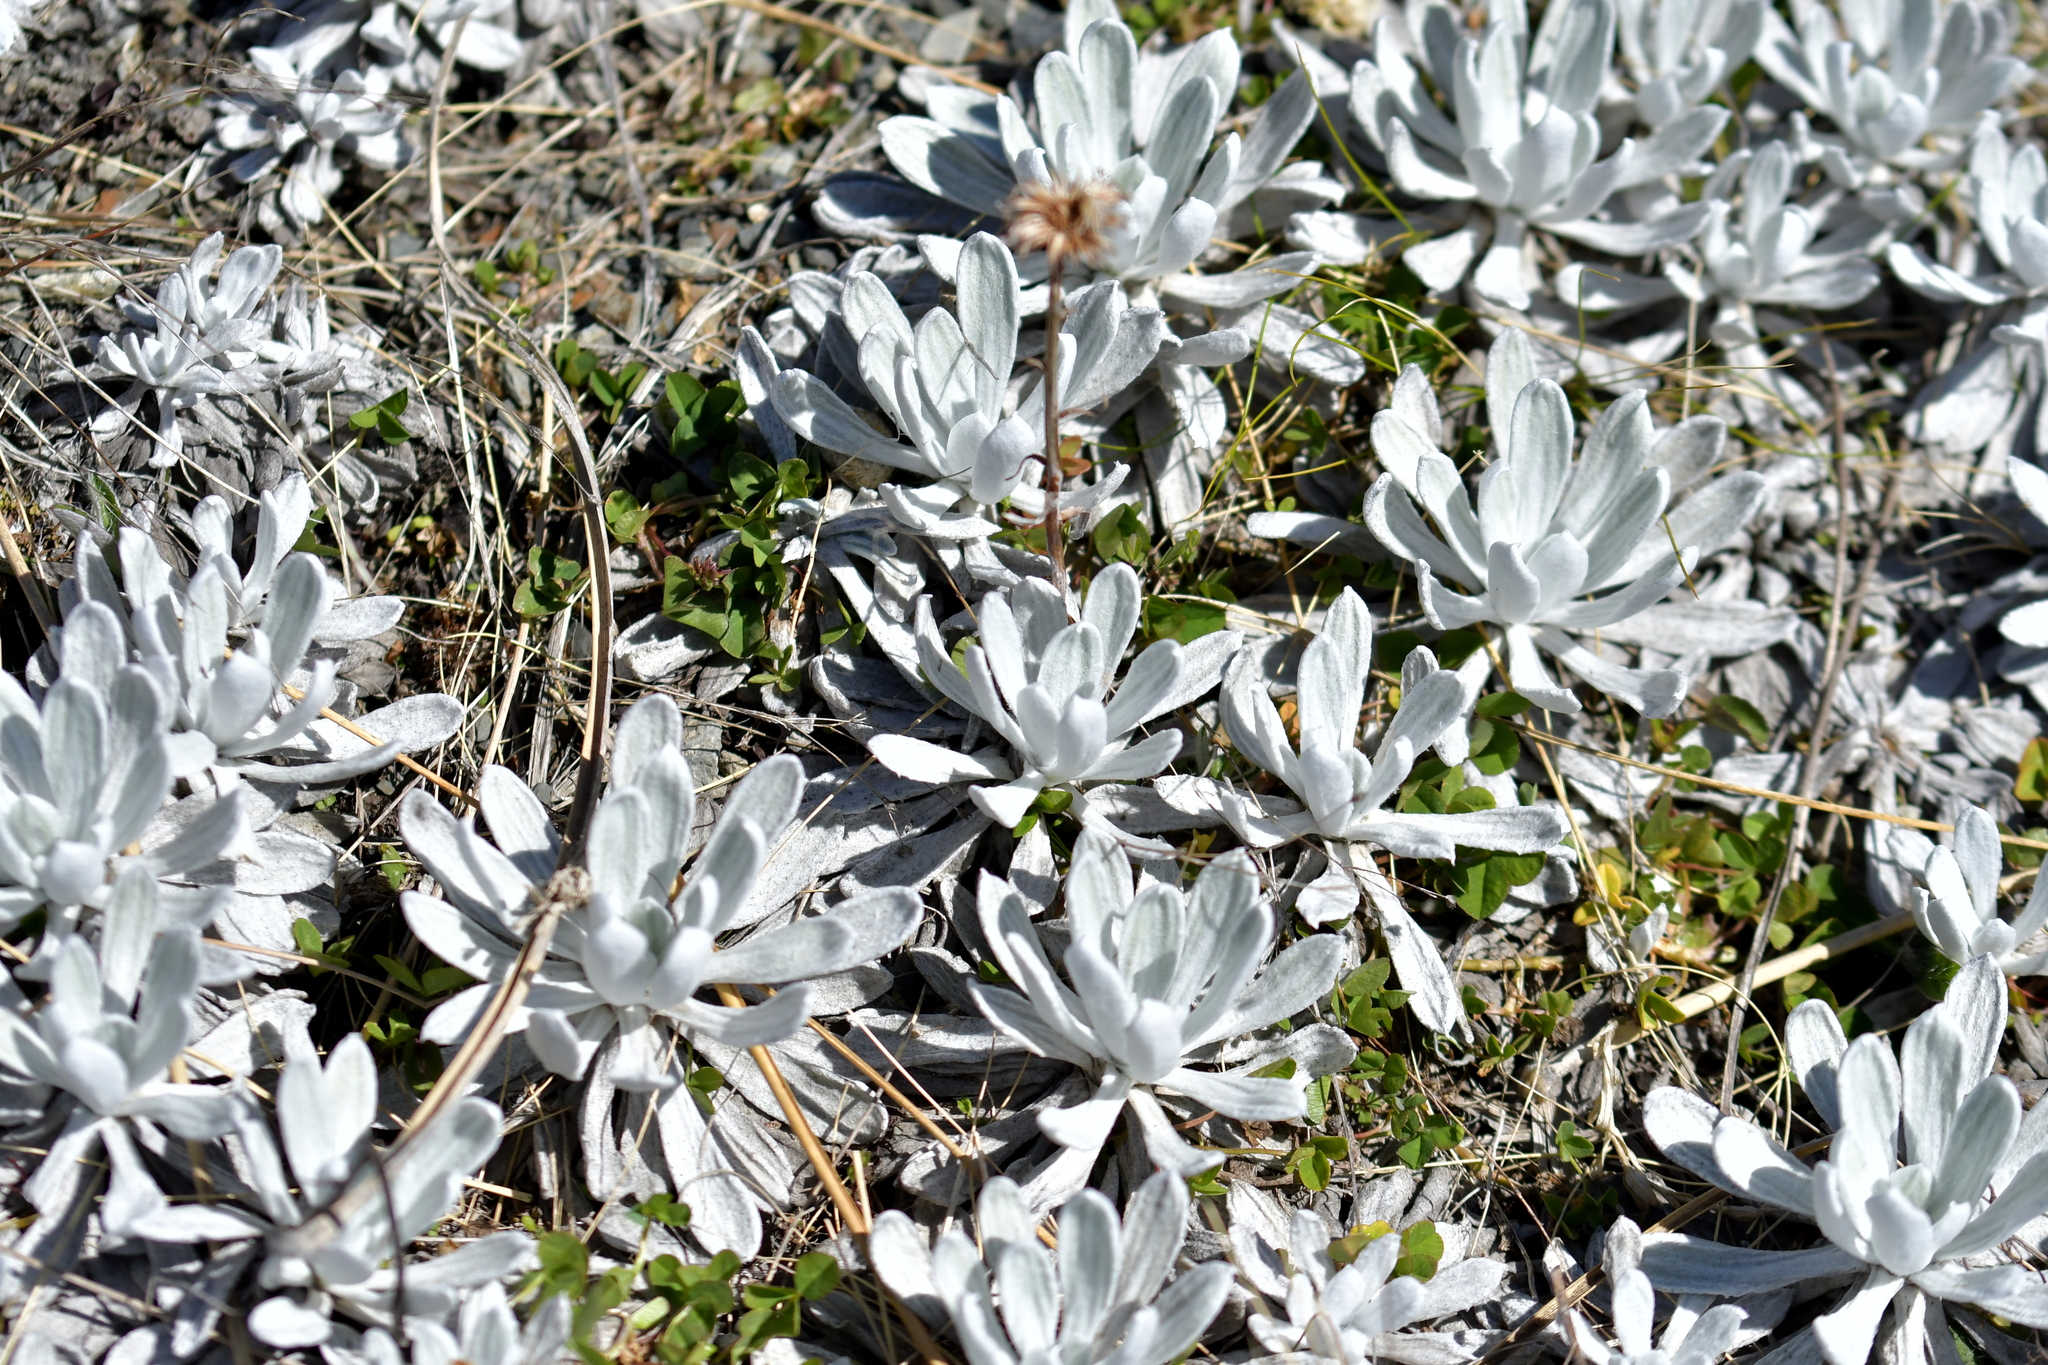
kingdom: Plantae
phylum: Tracheophyta
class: Magnoliopsida
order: Asterales
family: Asteraceae
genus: Celmisia
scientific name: Celmisia allanii
